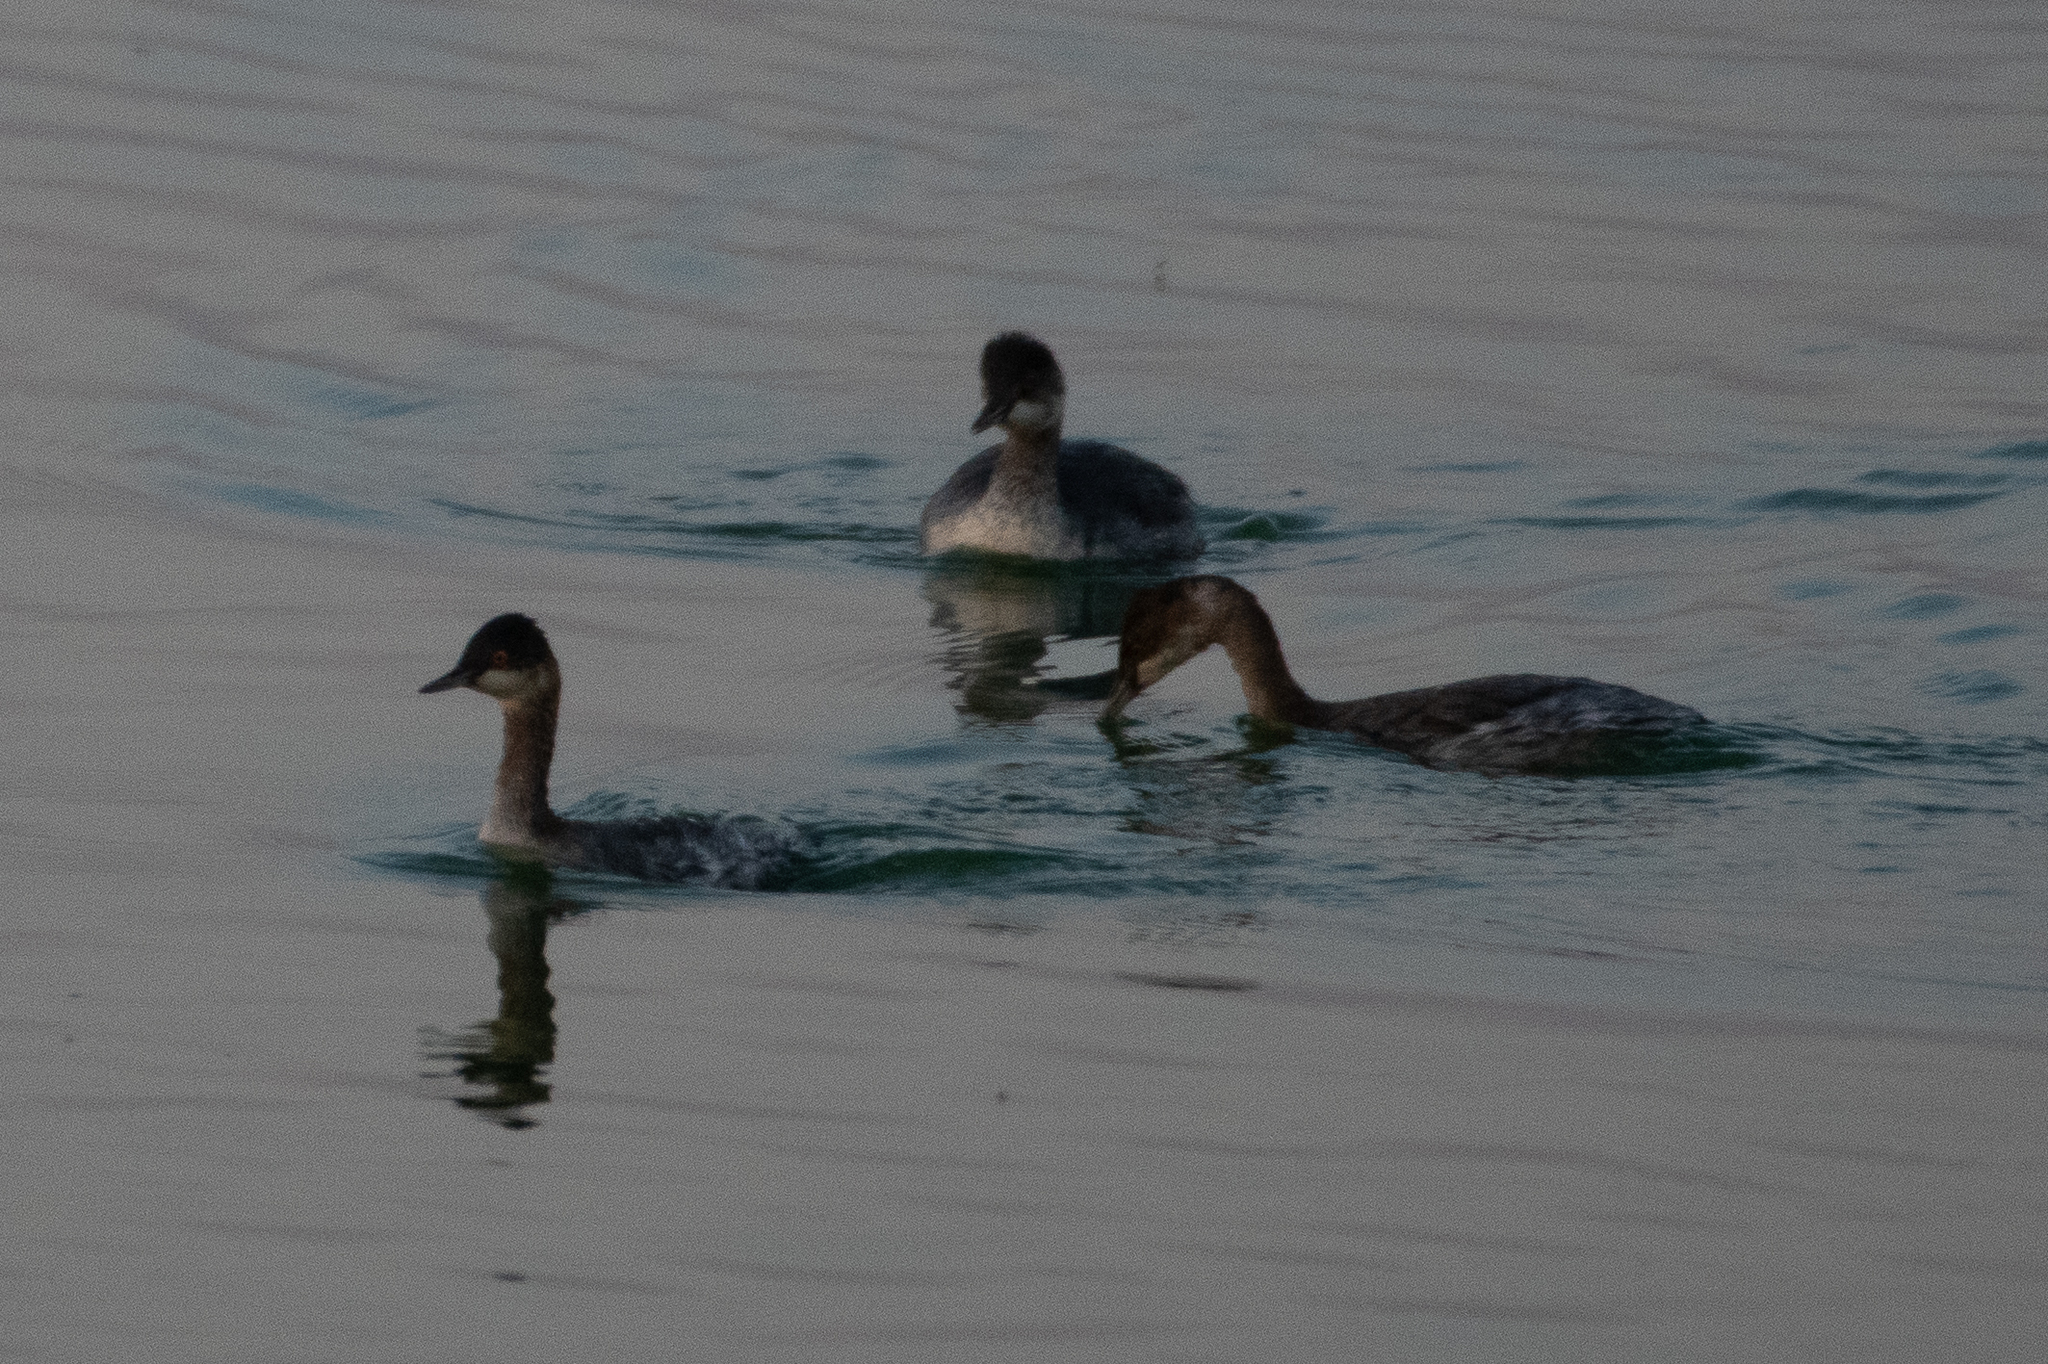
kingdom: Animalia
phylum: Chordata
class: Aves
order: Podicipediformes
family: Podicipedidae
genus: Podiceps
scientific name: Podiceps nigricollis
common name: Black-necked grebe
